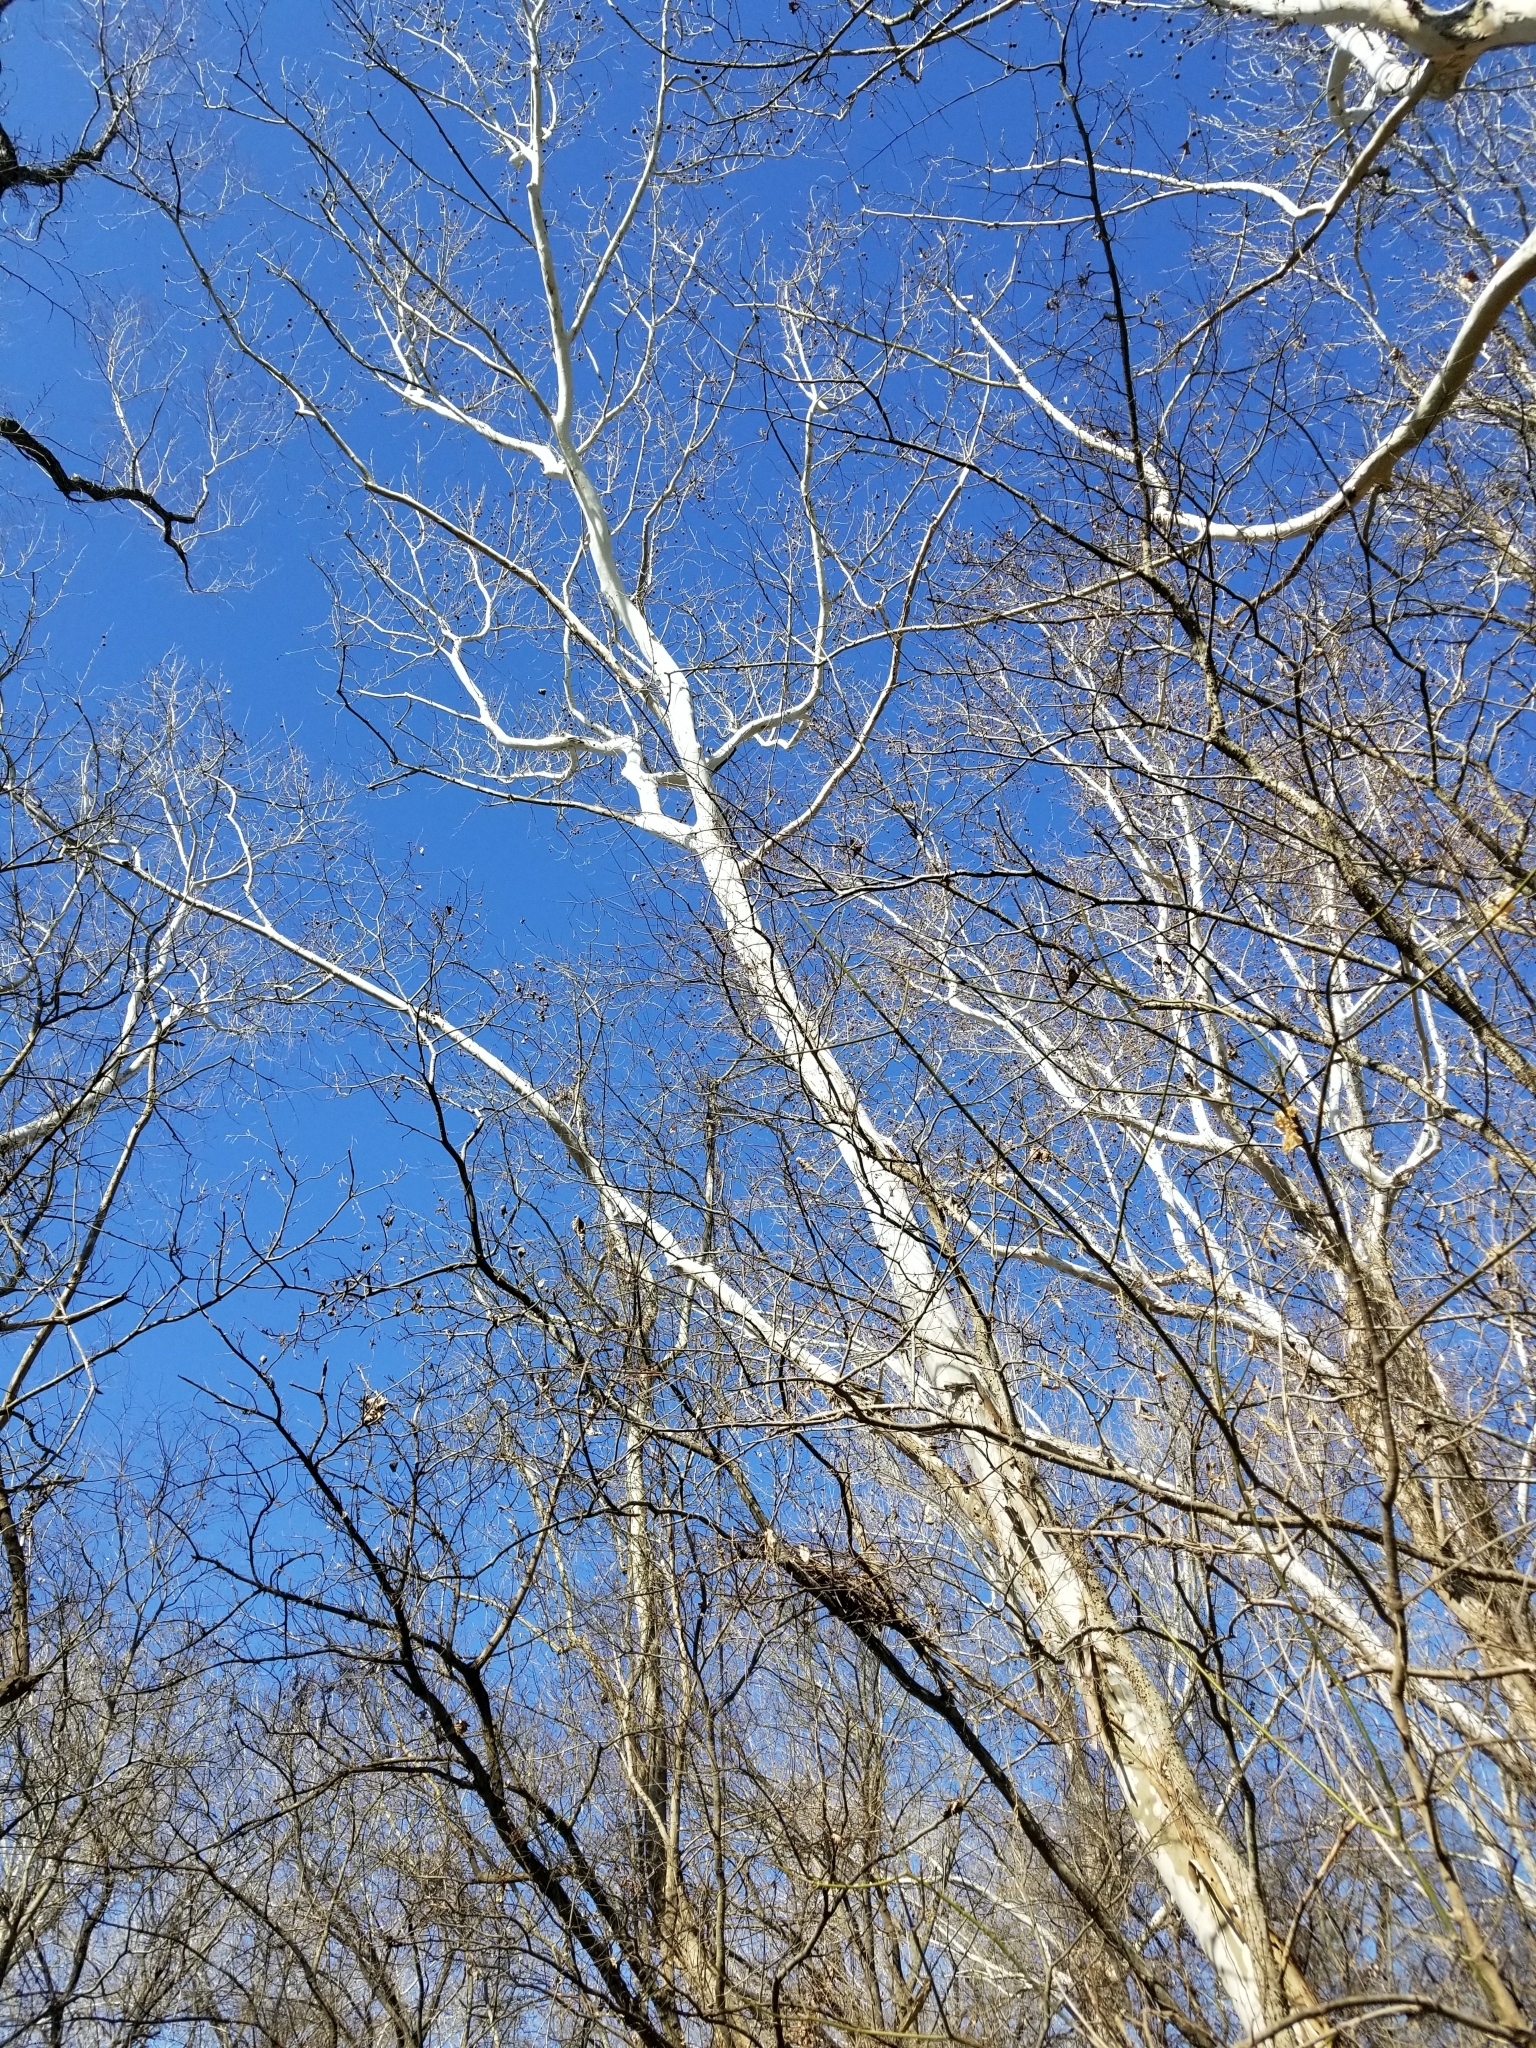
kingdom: Plantae
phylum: Tracheophyta
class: Magnoliopsida
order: Proteales
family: Platanaceae
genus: Platanus
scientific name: Platanus occidentalis
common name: American sycamore
